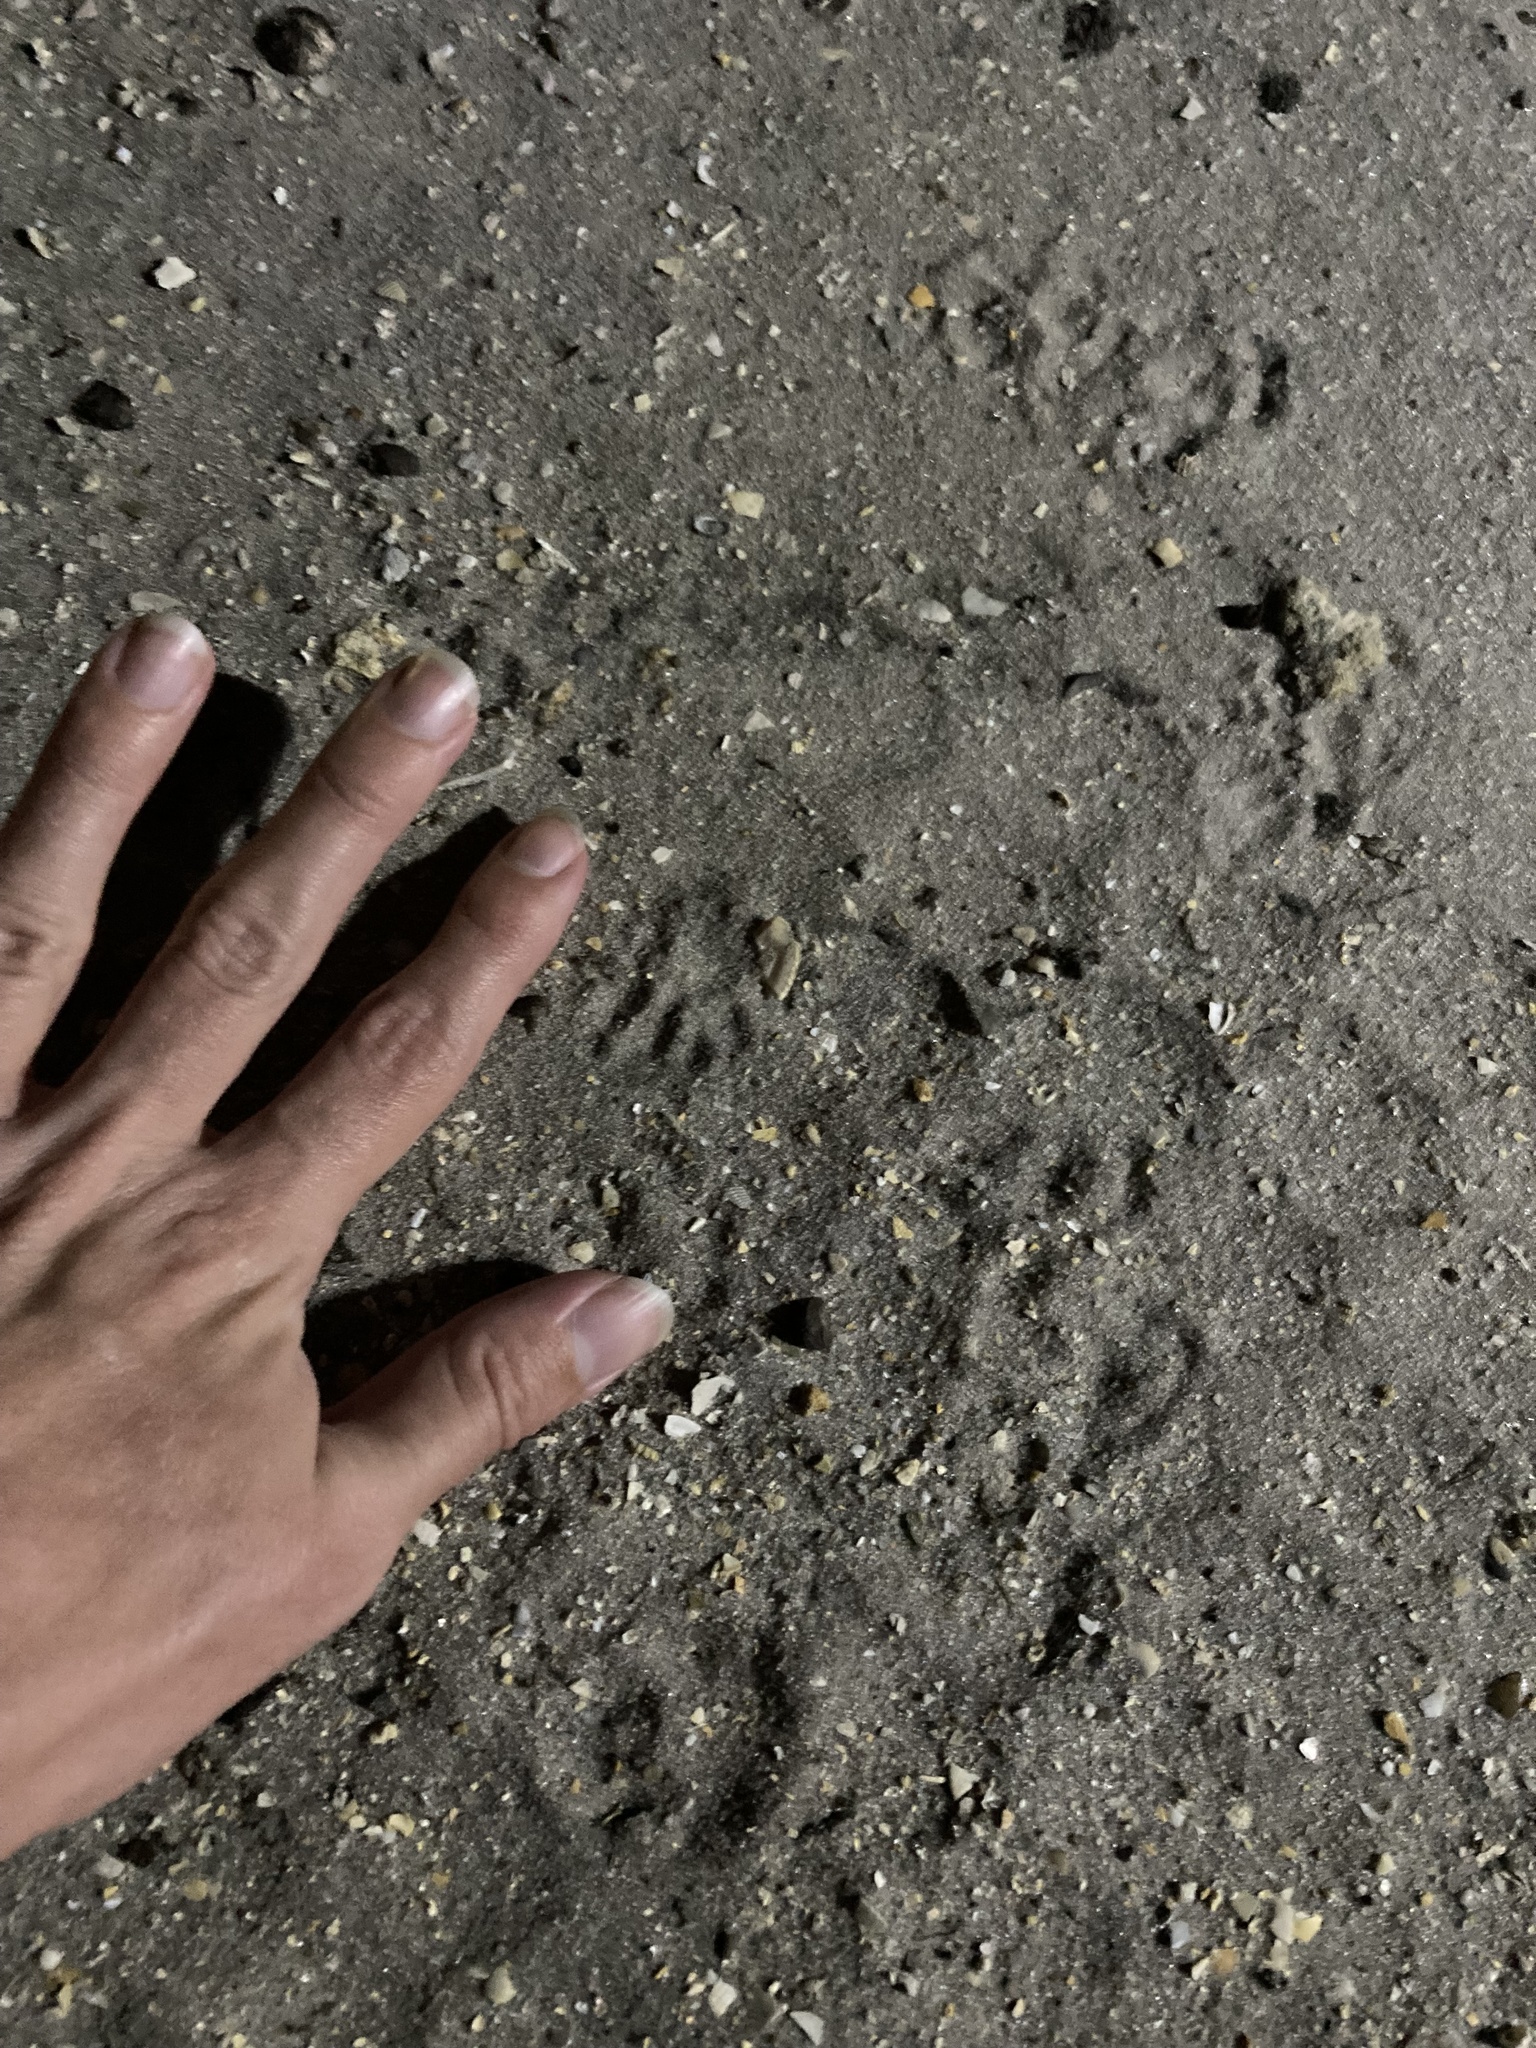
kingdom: Animalia
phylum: Chordata
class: Mammalia
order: Rodentia
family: Sciuridae
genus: Sciurus
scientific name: Sciurus carolinensis
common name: Eastern gray squirrel
